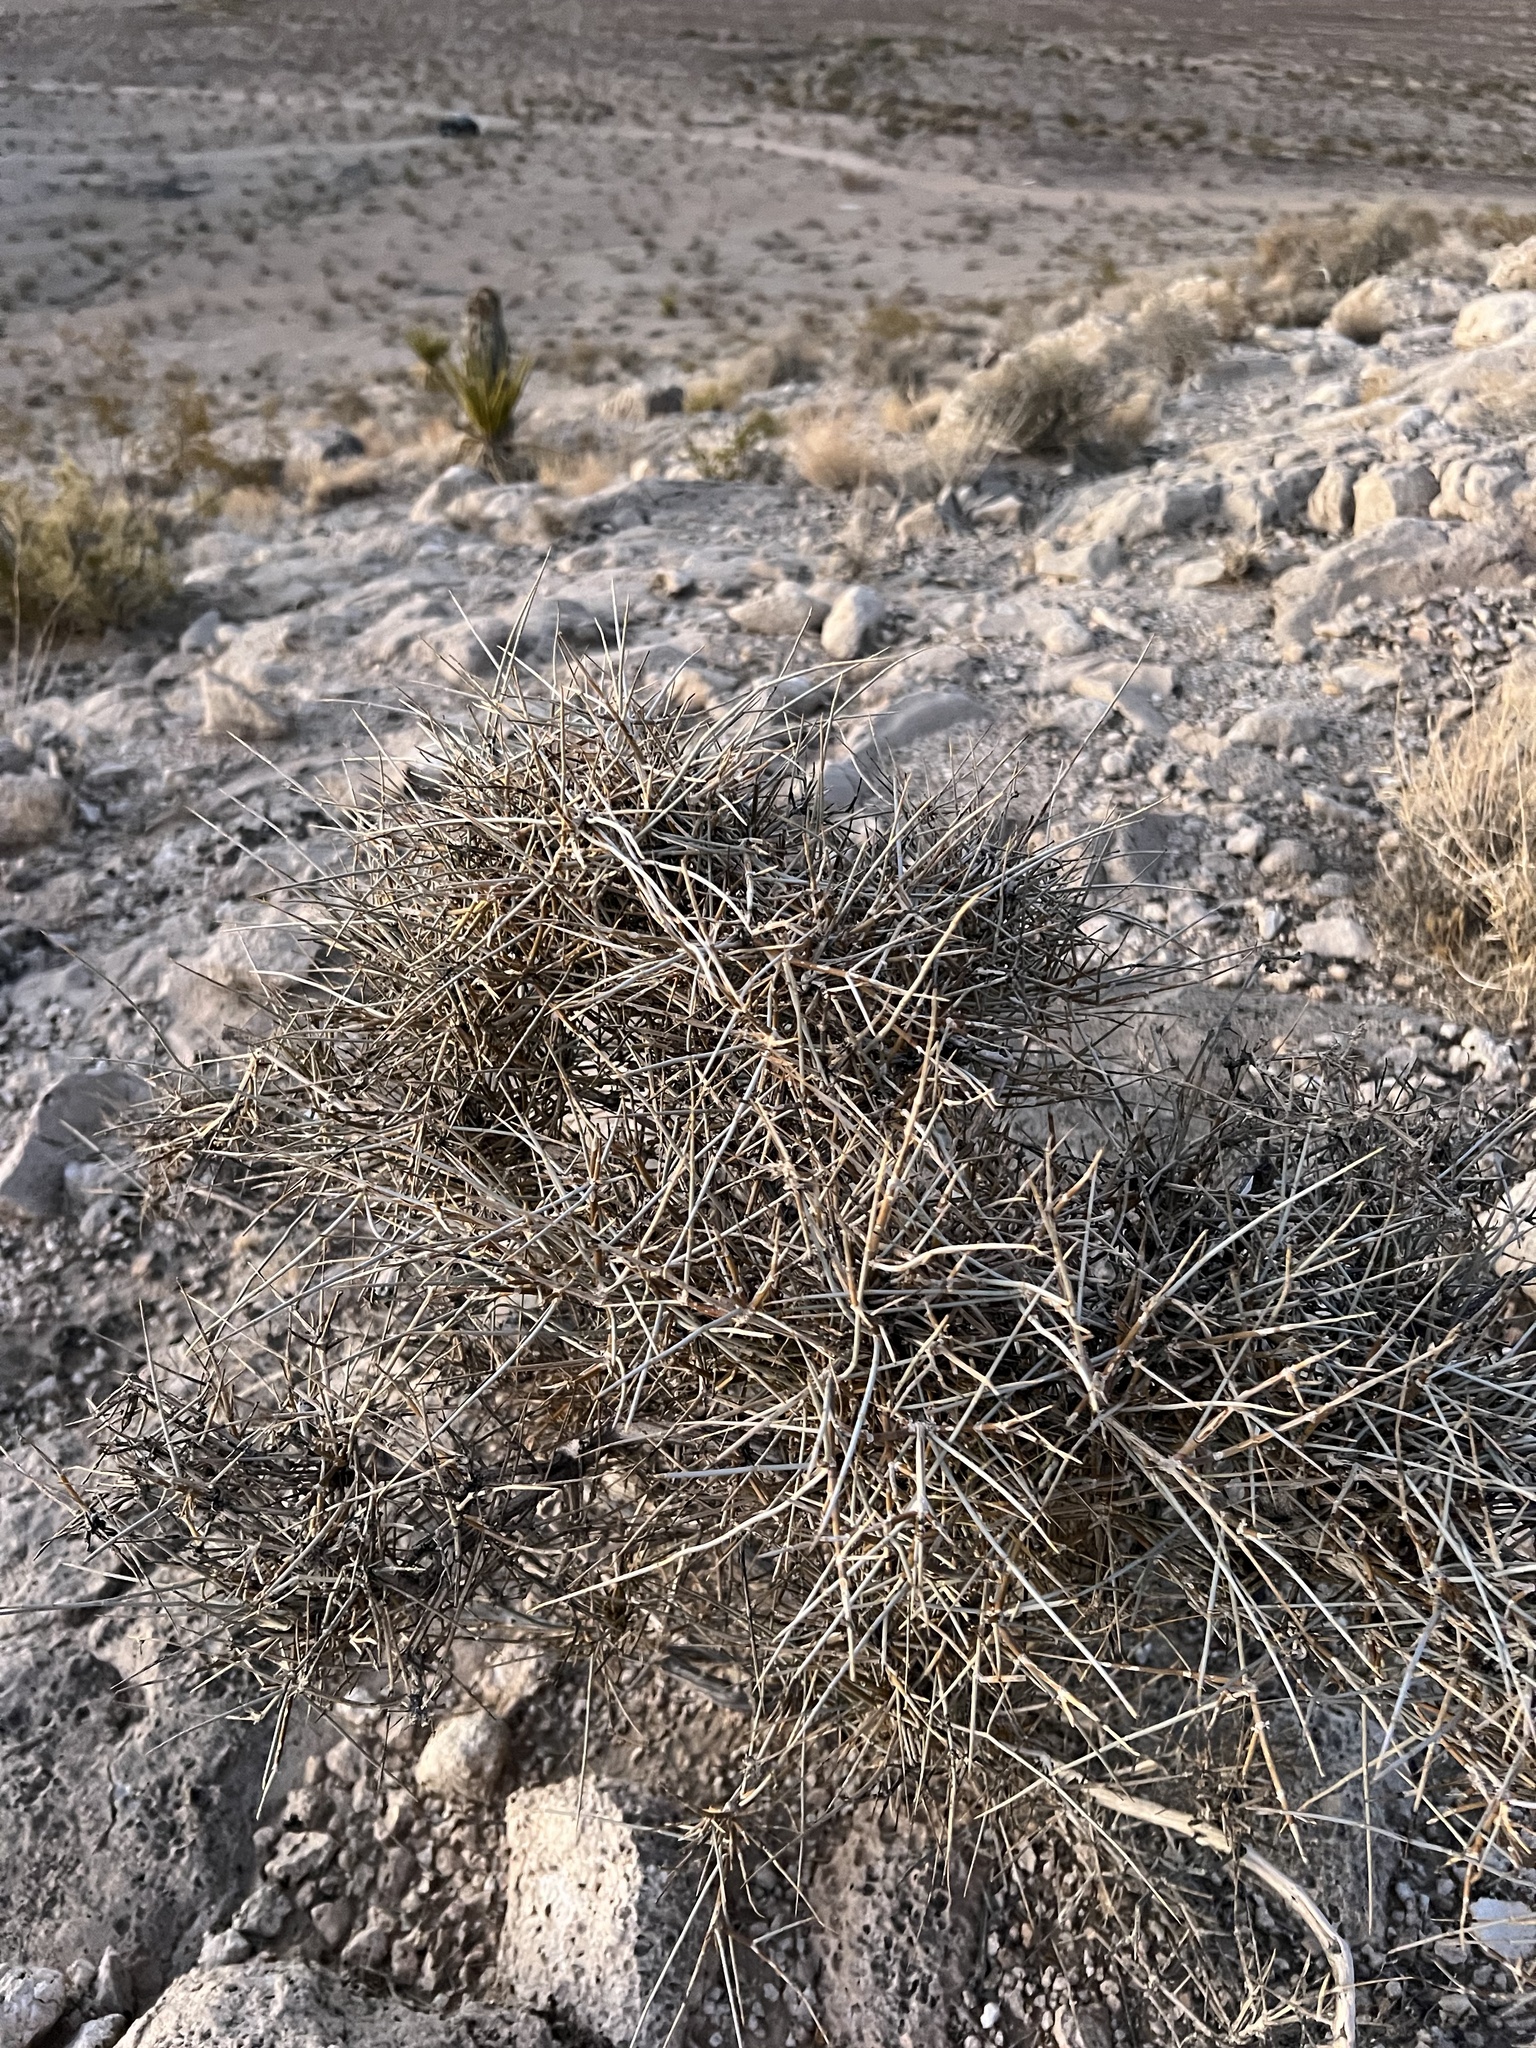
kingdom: Plantae
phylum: Tracheophyta
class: Gnetopsida
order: Ephedrales
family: Ephedraceae
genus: Ephedra
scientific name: Ephedra nevadensis
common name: Gray ephedra
